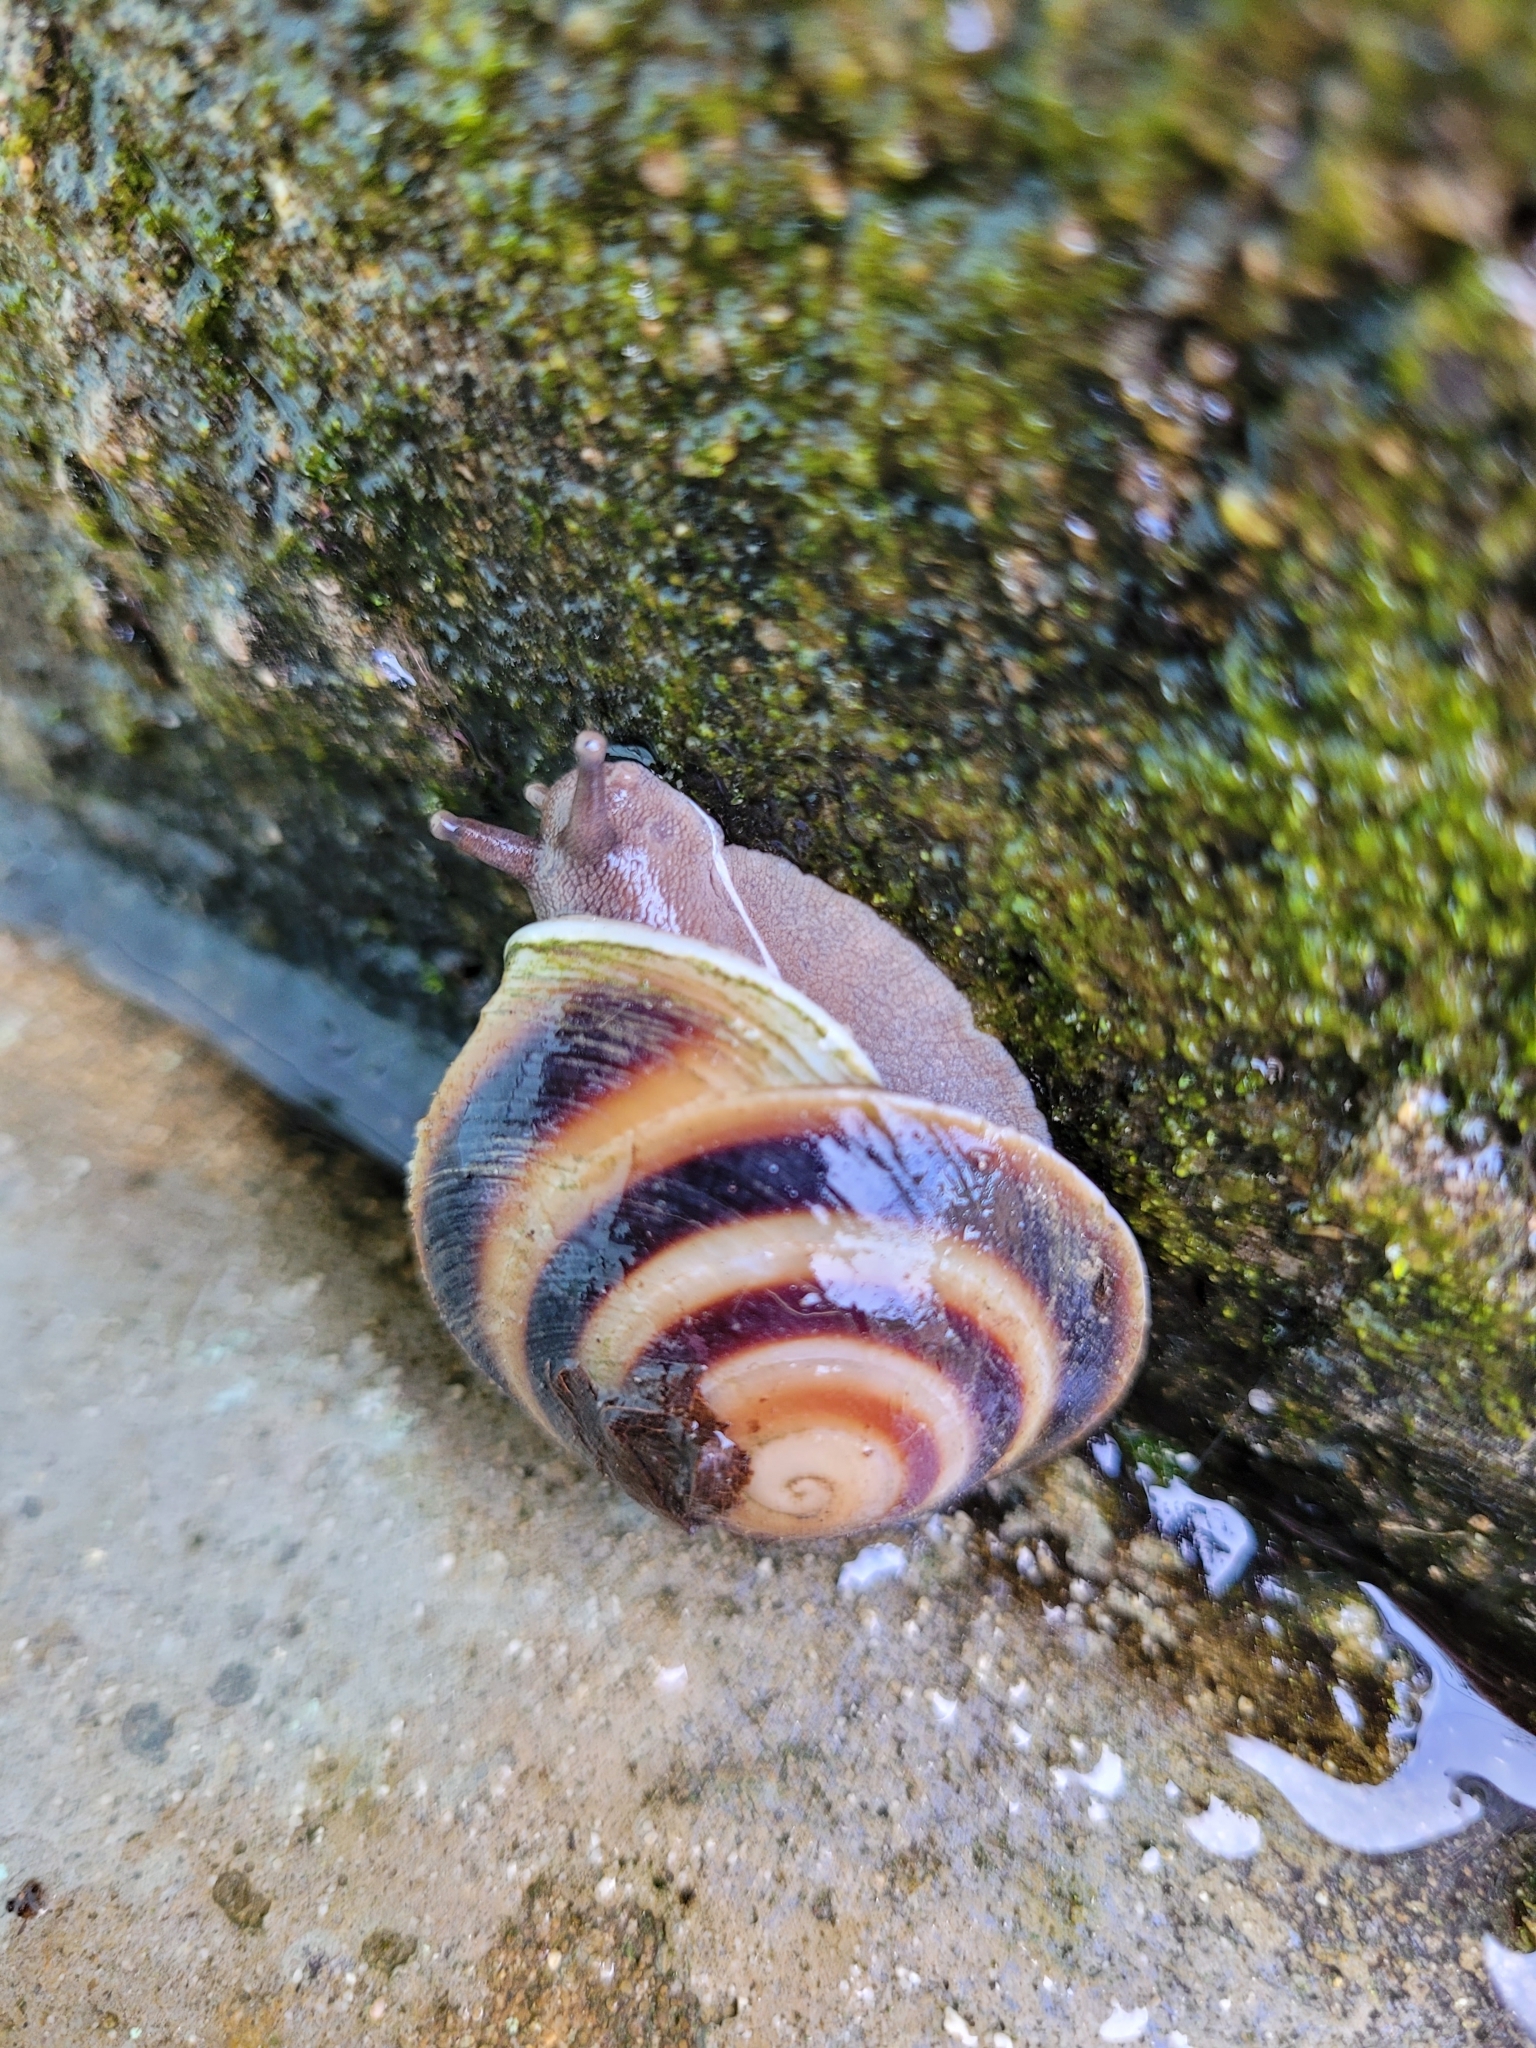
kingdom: Animalia
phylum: Mollusca
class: Gastropoda
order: Stylommatophora
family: Solaropsidae
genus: Caracolus
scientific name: Caracolus marginella
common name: Banded caracol
